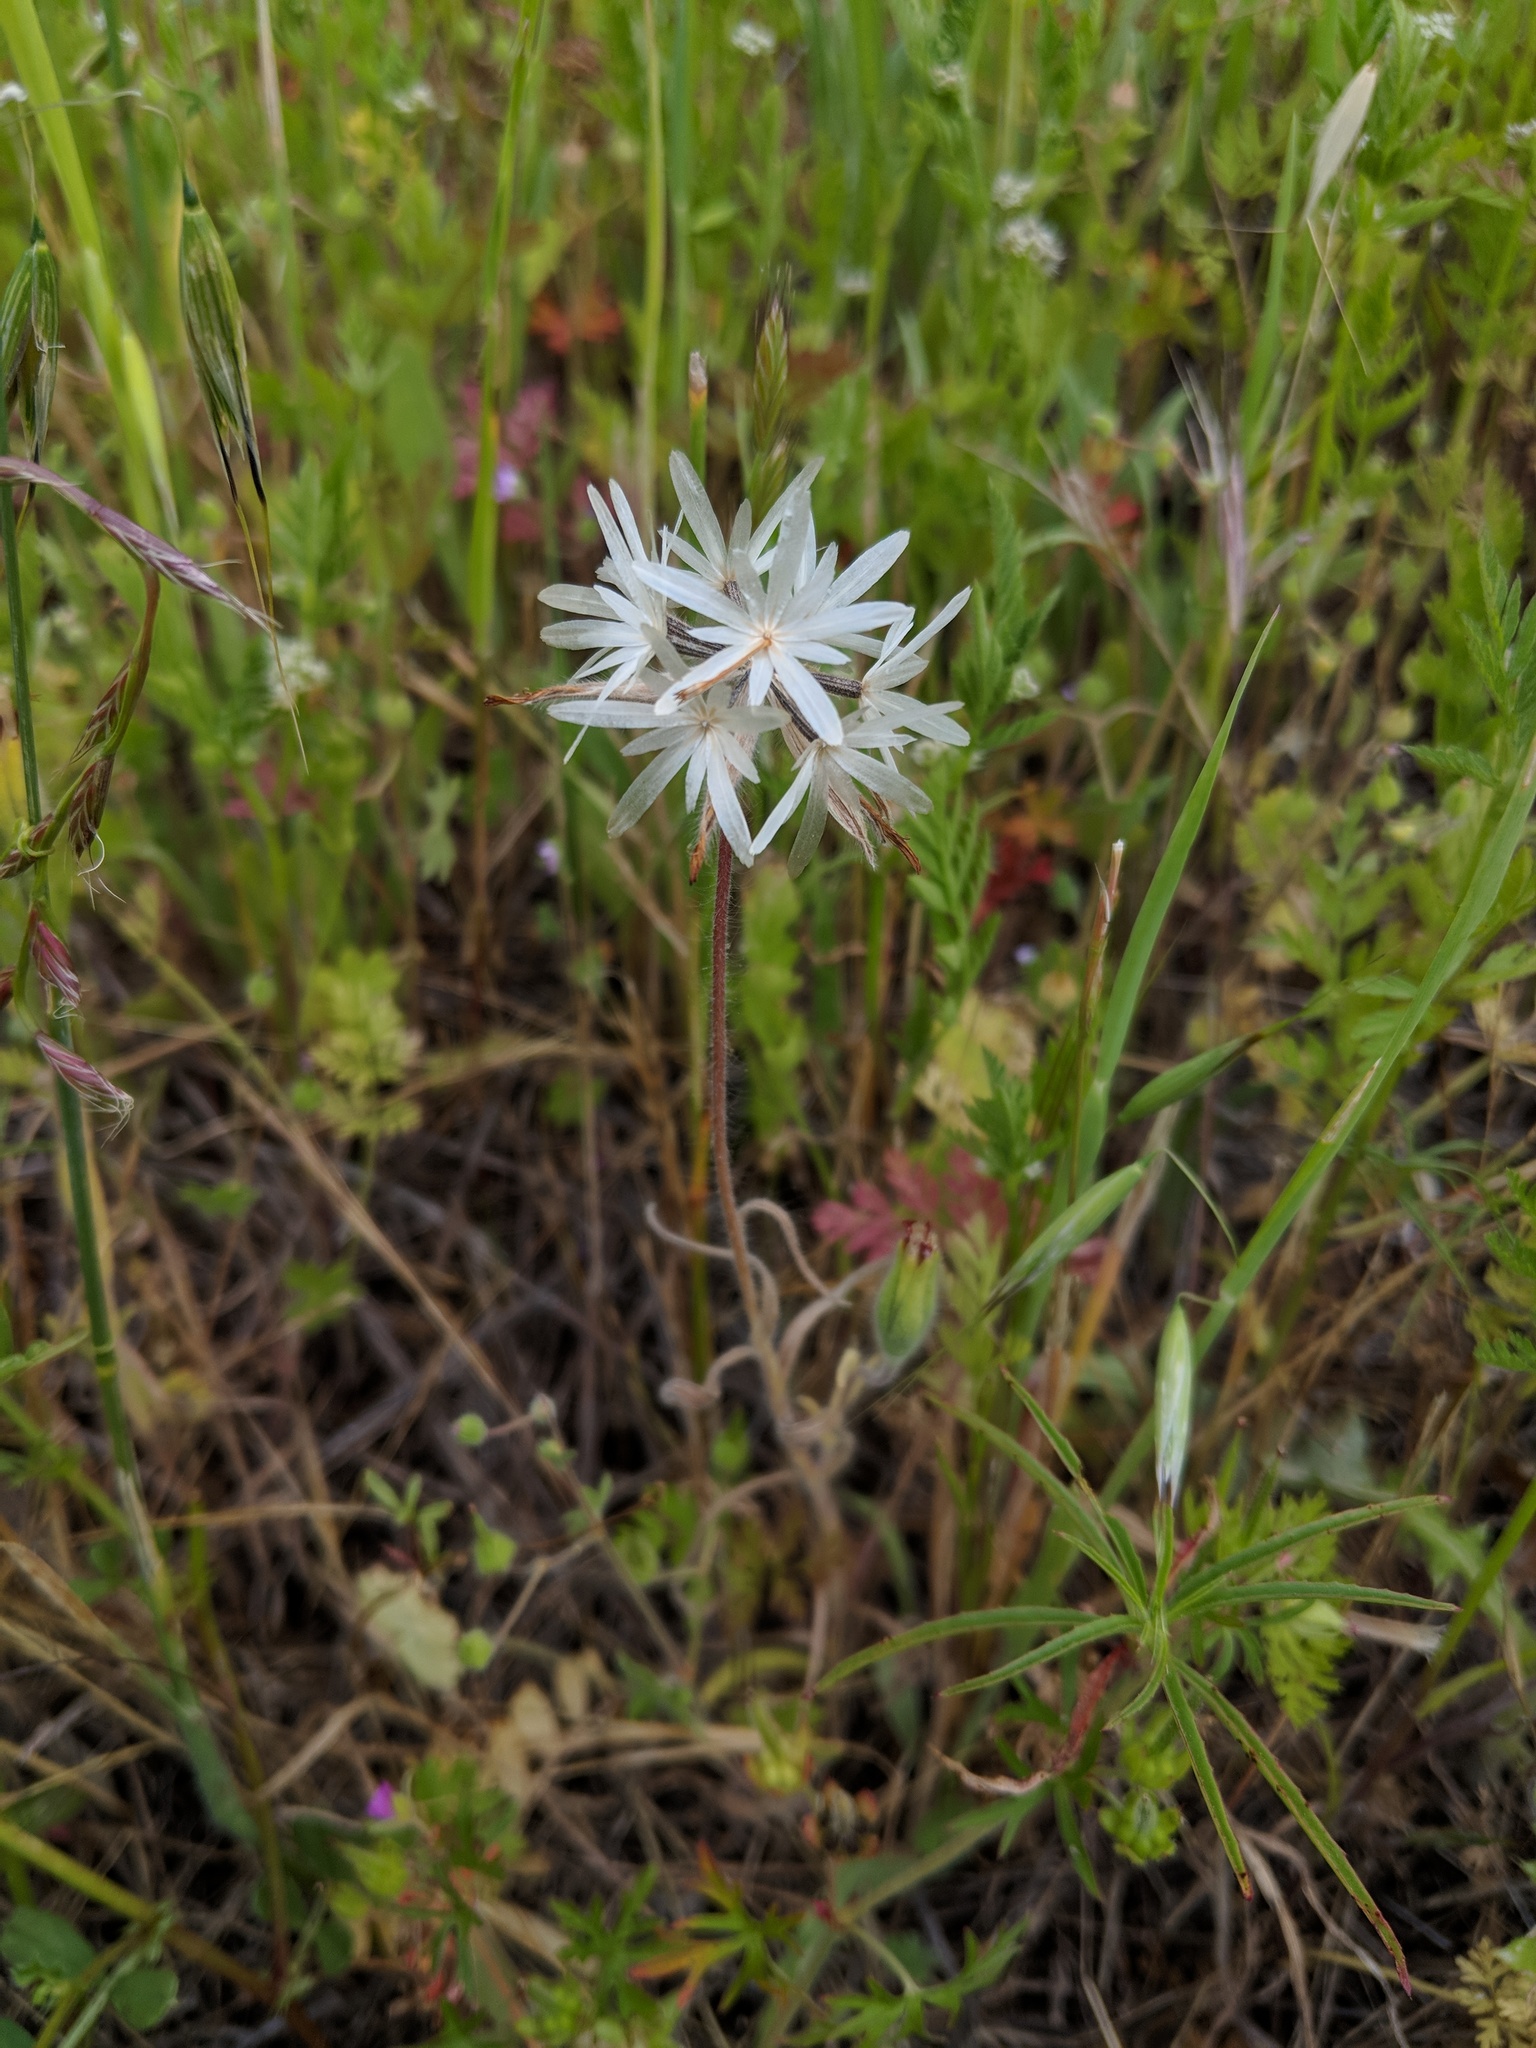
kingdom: Plantae
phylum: Tracheophyta
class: Magnoliopsida
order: Asterales
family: Asteraceae
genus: Achyrachaena
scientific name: Achyrachaena mollis
